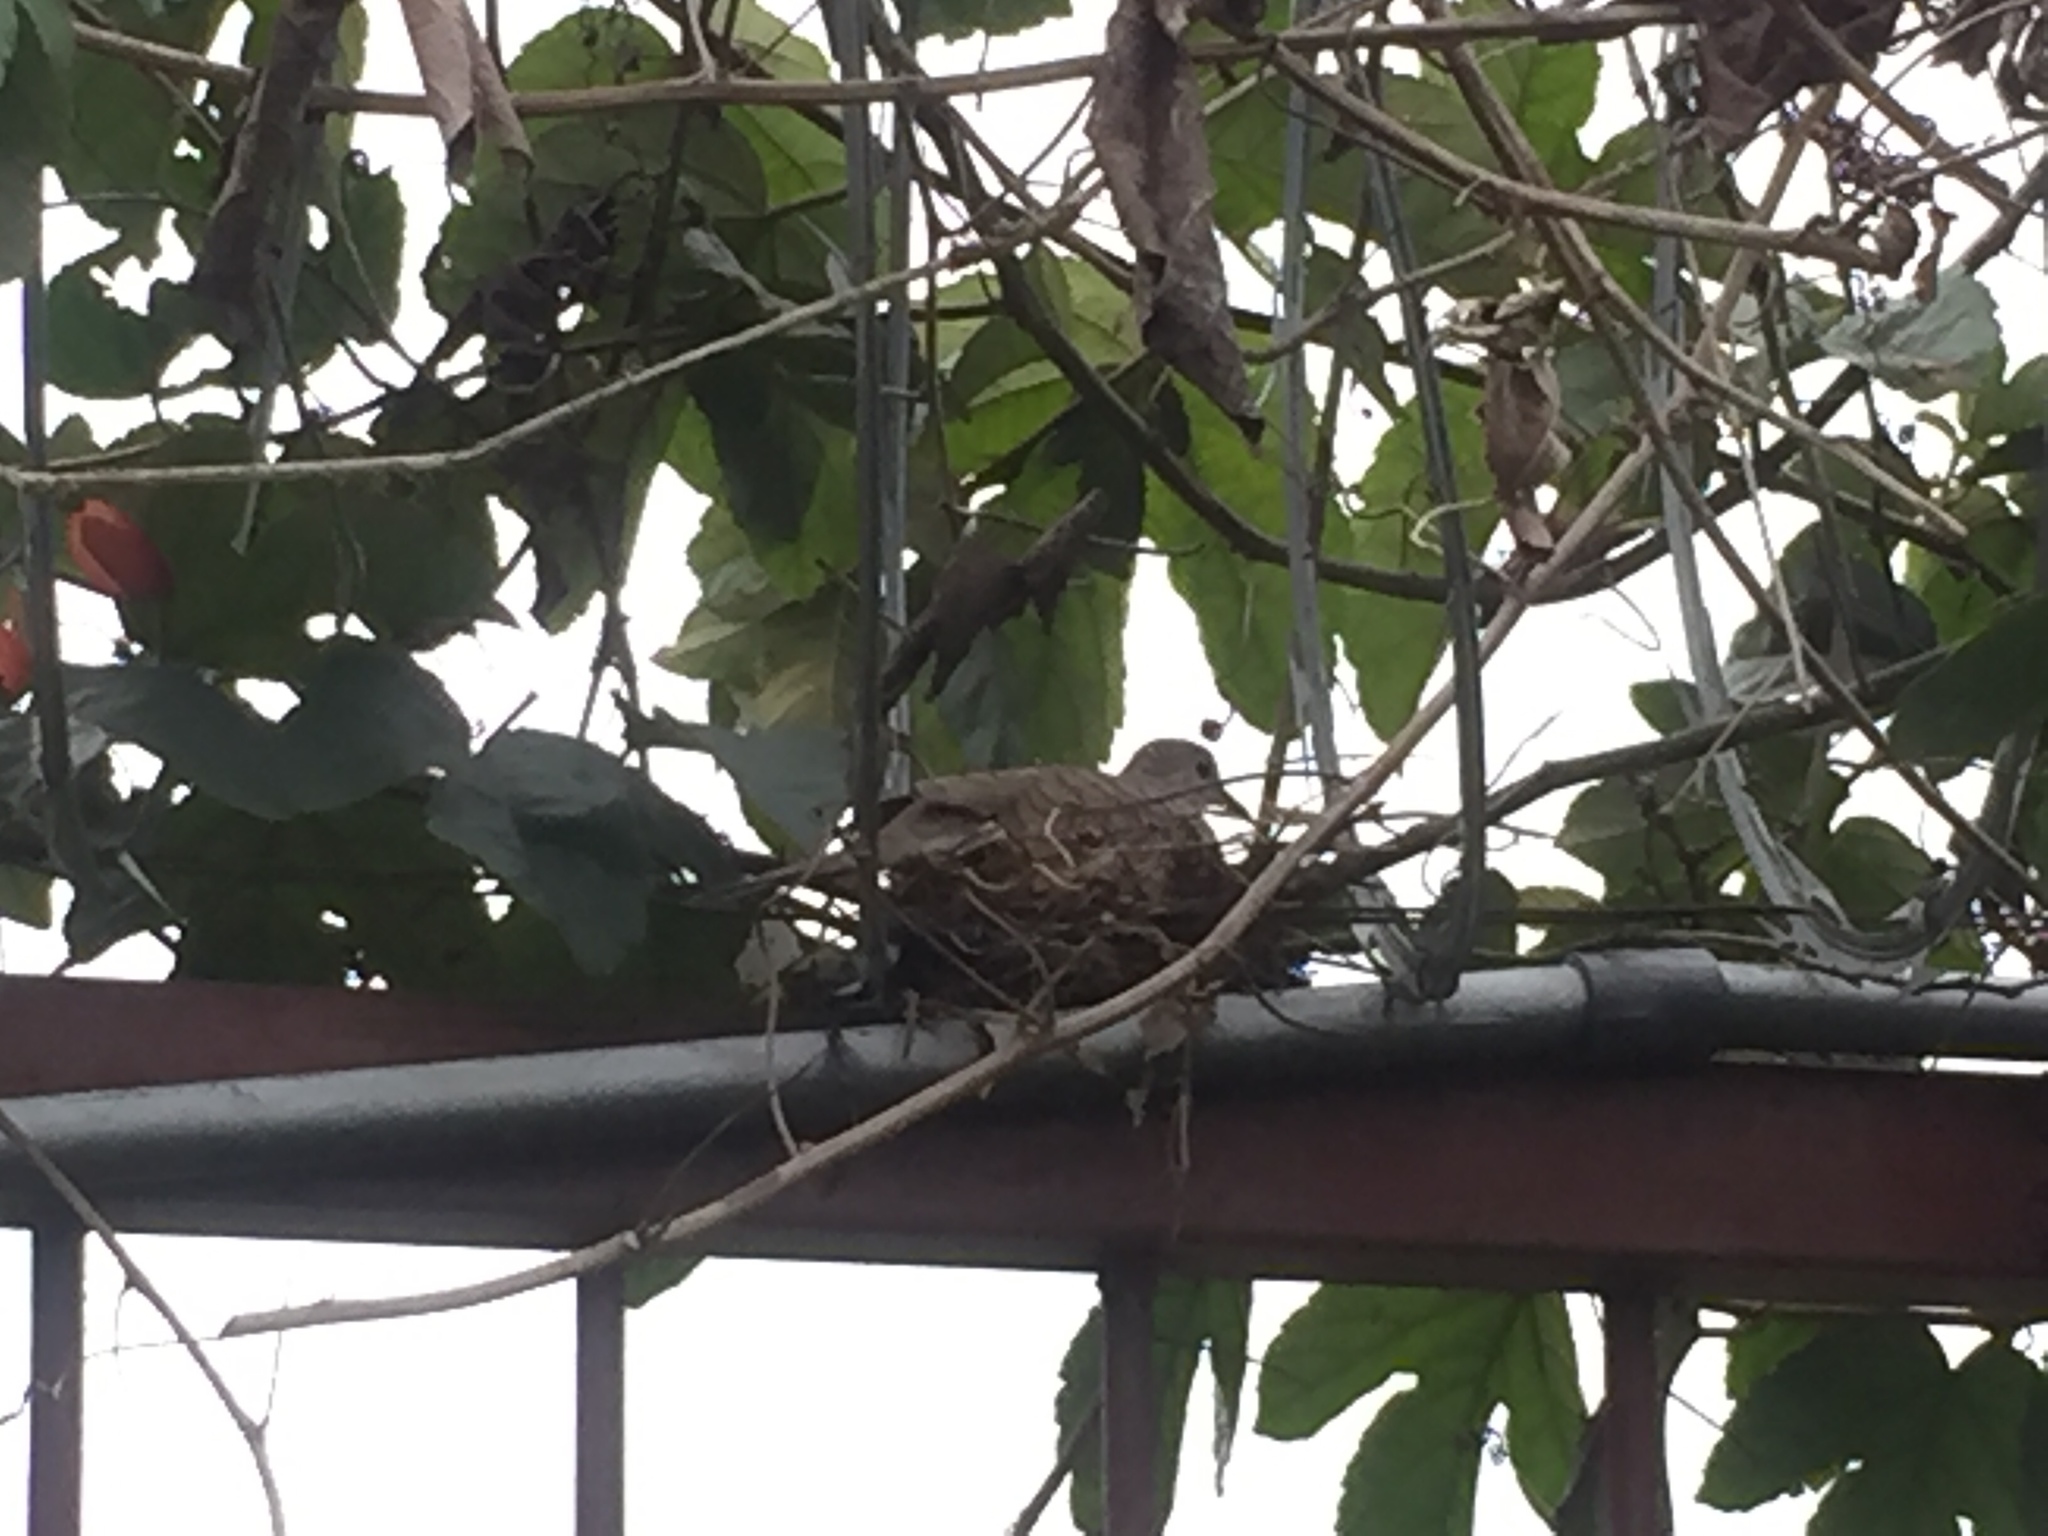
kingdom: Animalia
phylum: Chordata
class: Aves
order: Columbiformes
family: Columbidae
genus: Columbina
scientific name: Columbina inca
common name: Inca dove
